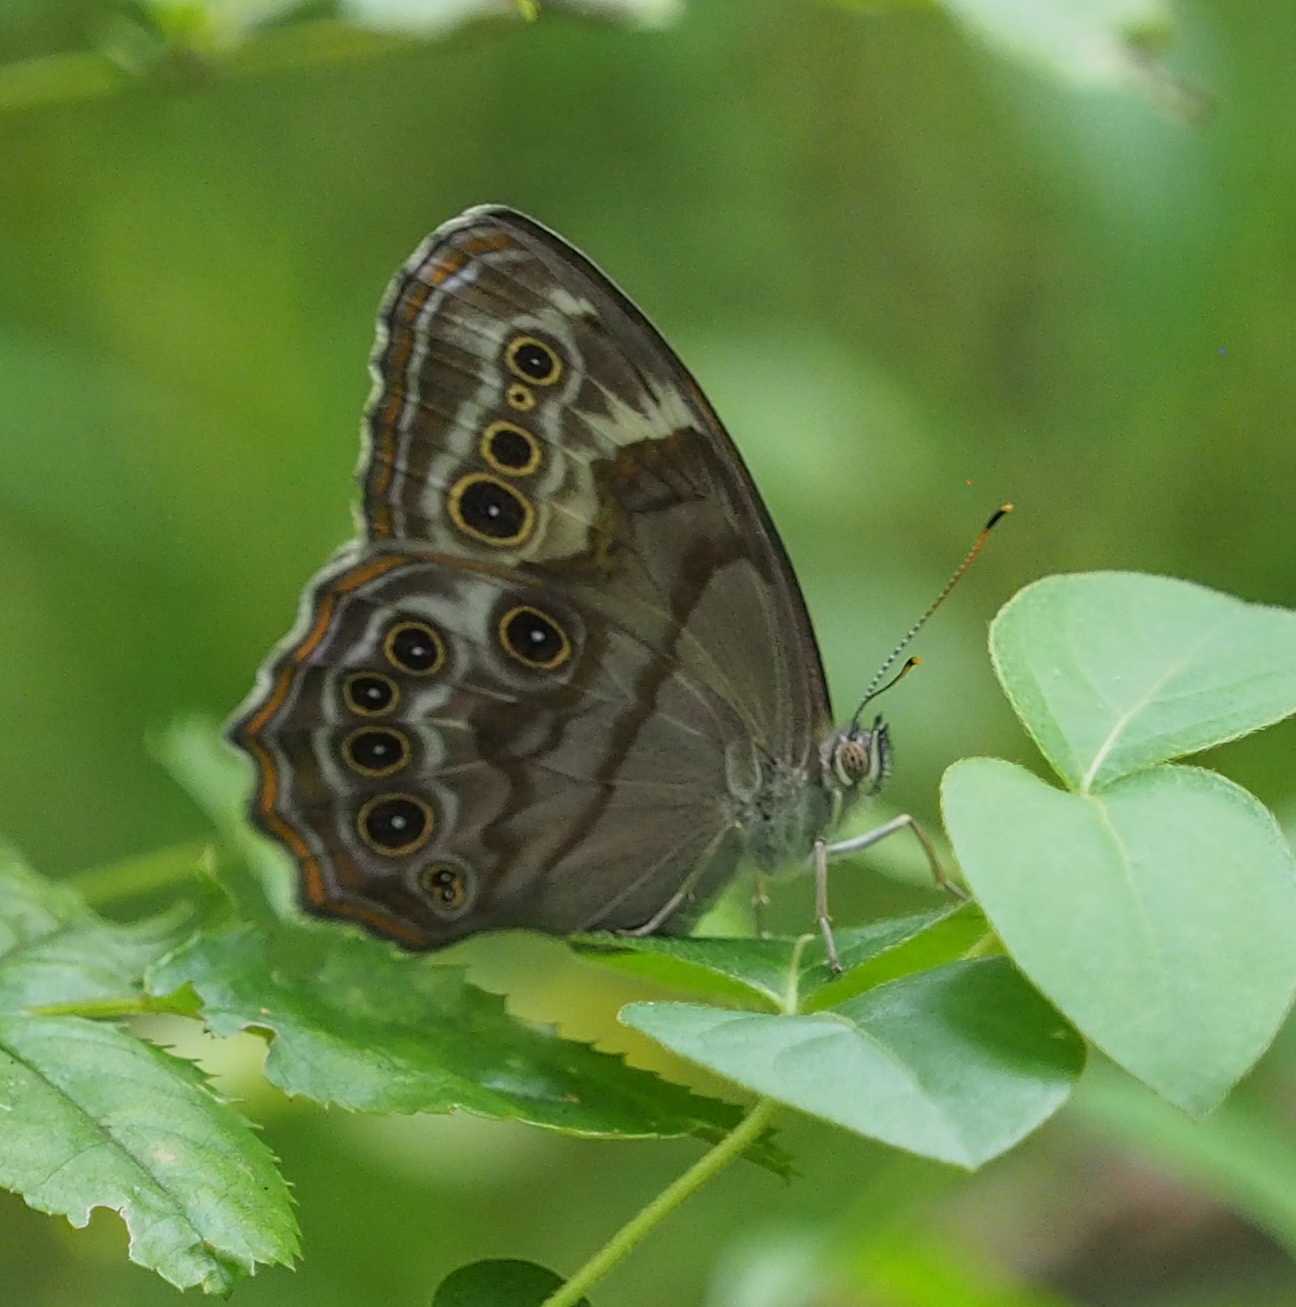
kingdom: Animalia
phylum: Arthropoda
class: Insecta
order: Lepidoptera
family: Nymphalidae
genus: Lethe
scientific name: Lethe anthedon
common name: Northern pearly-eye
